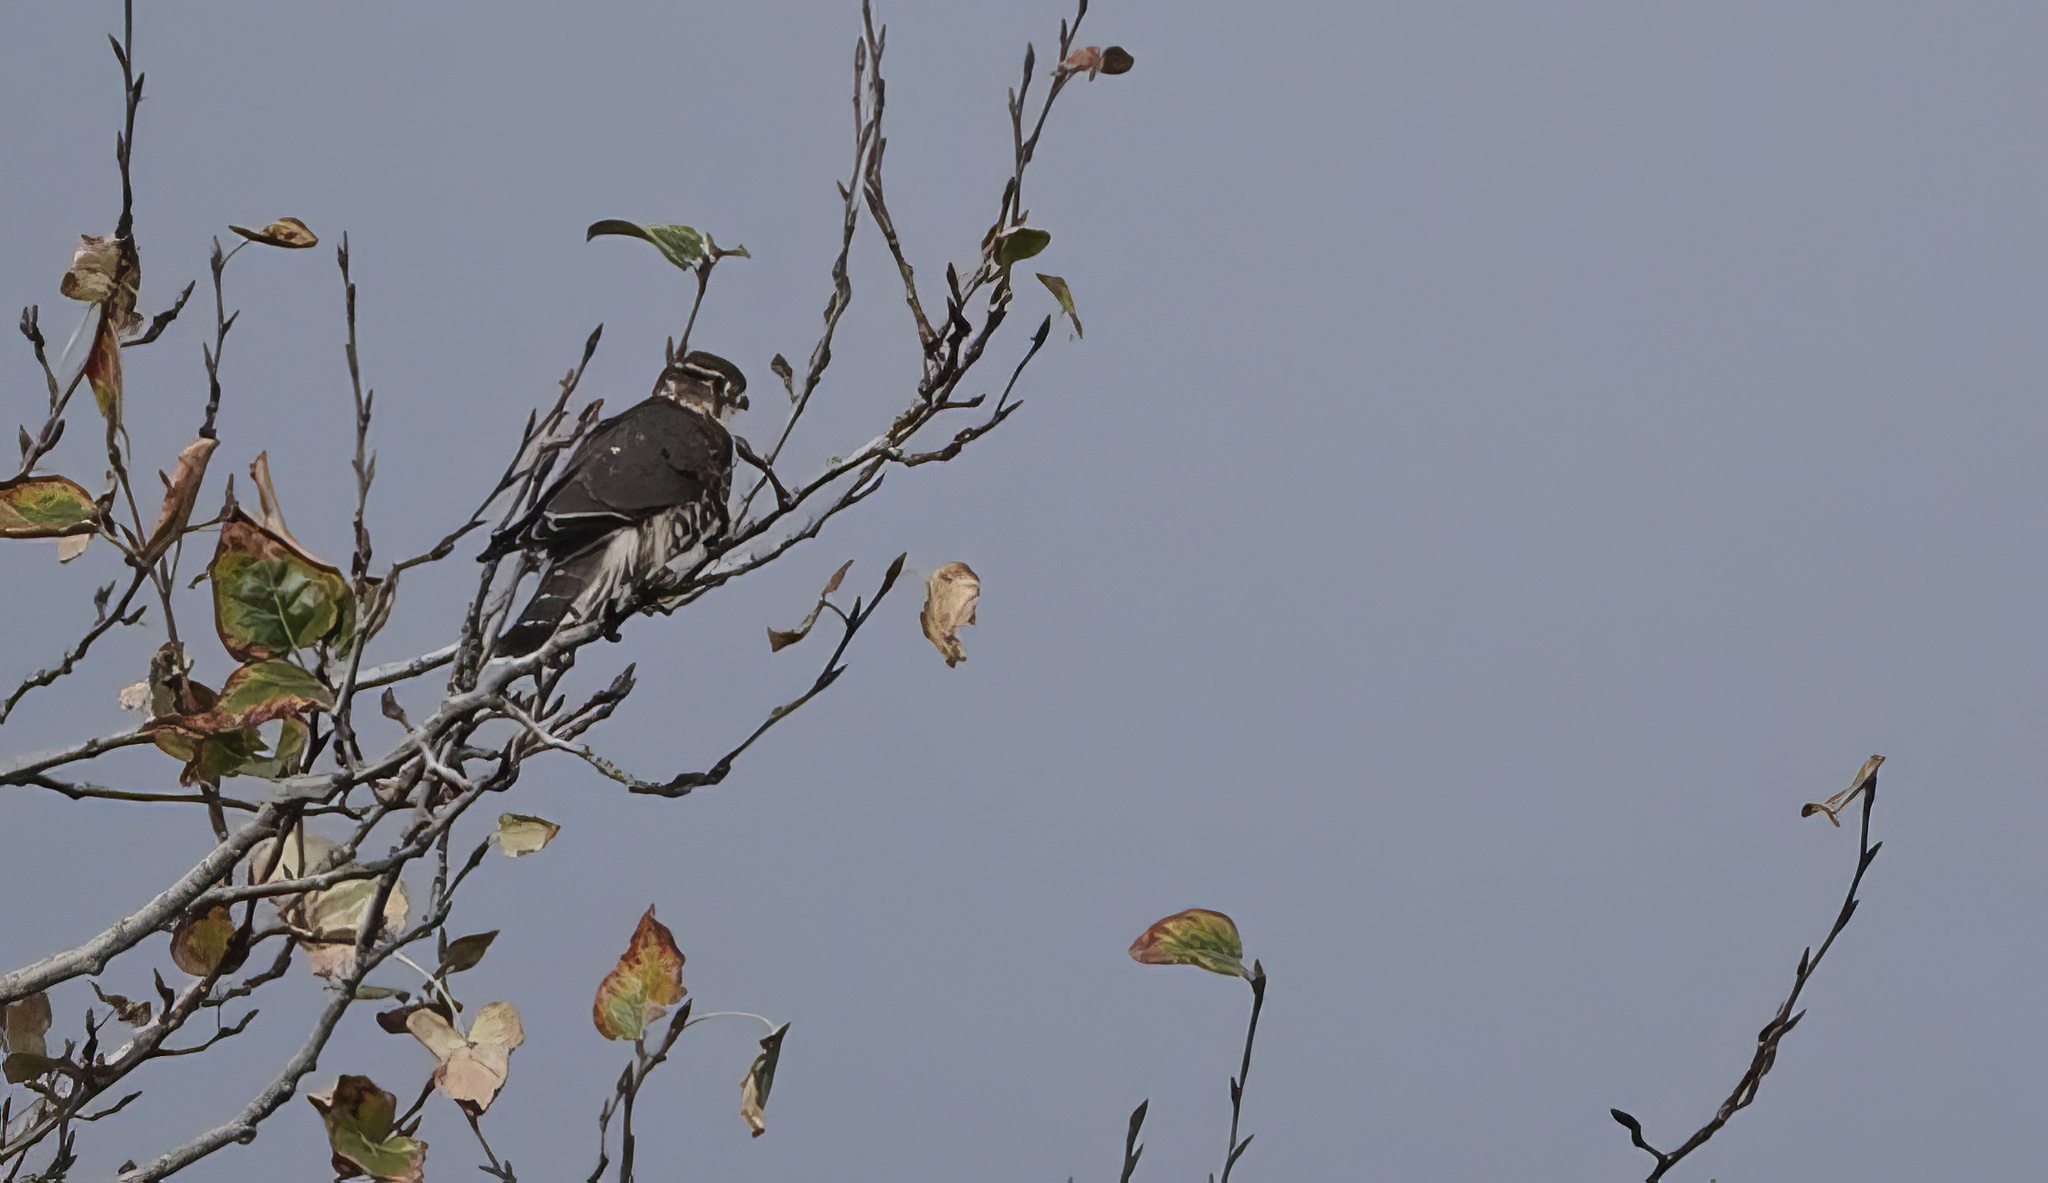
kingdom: Animalia
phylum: Chordata
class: Aves
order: Falconiformes
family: Falconidae
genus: Falco
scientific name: Falco columbarius
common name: Merlin
